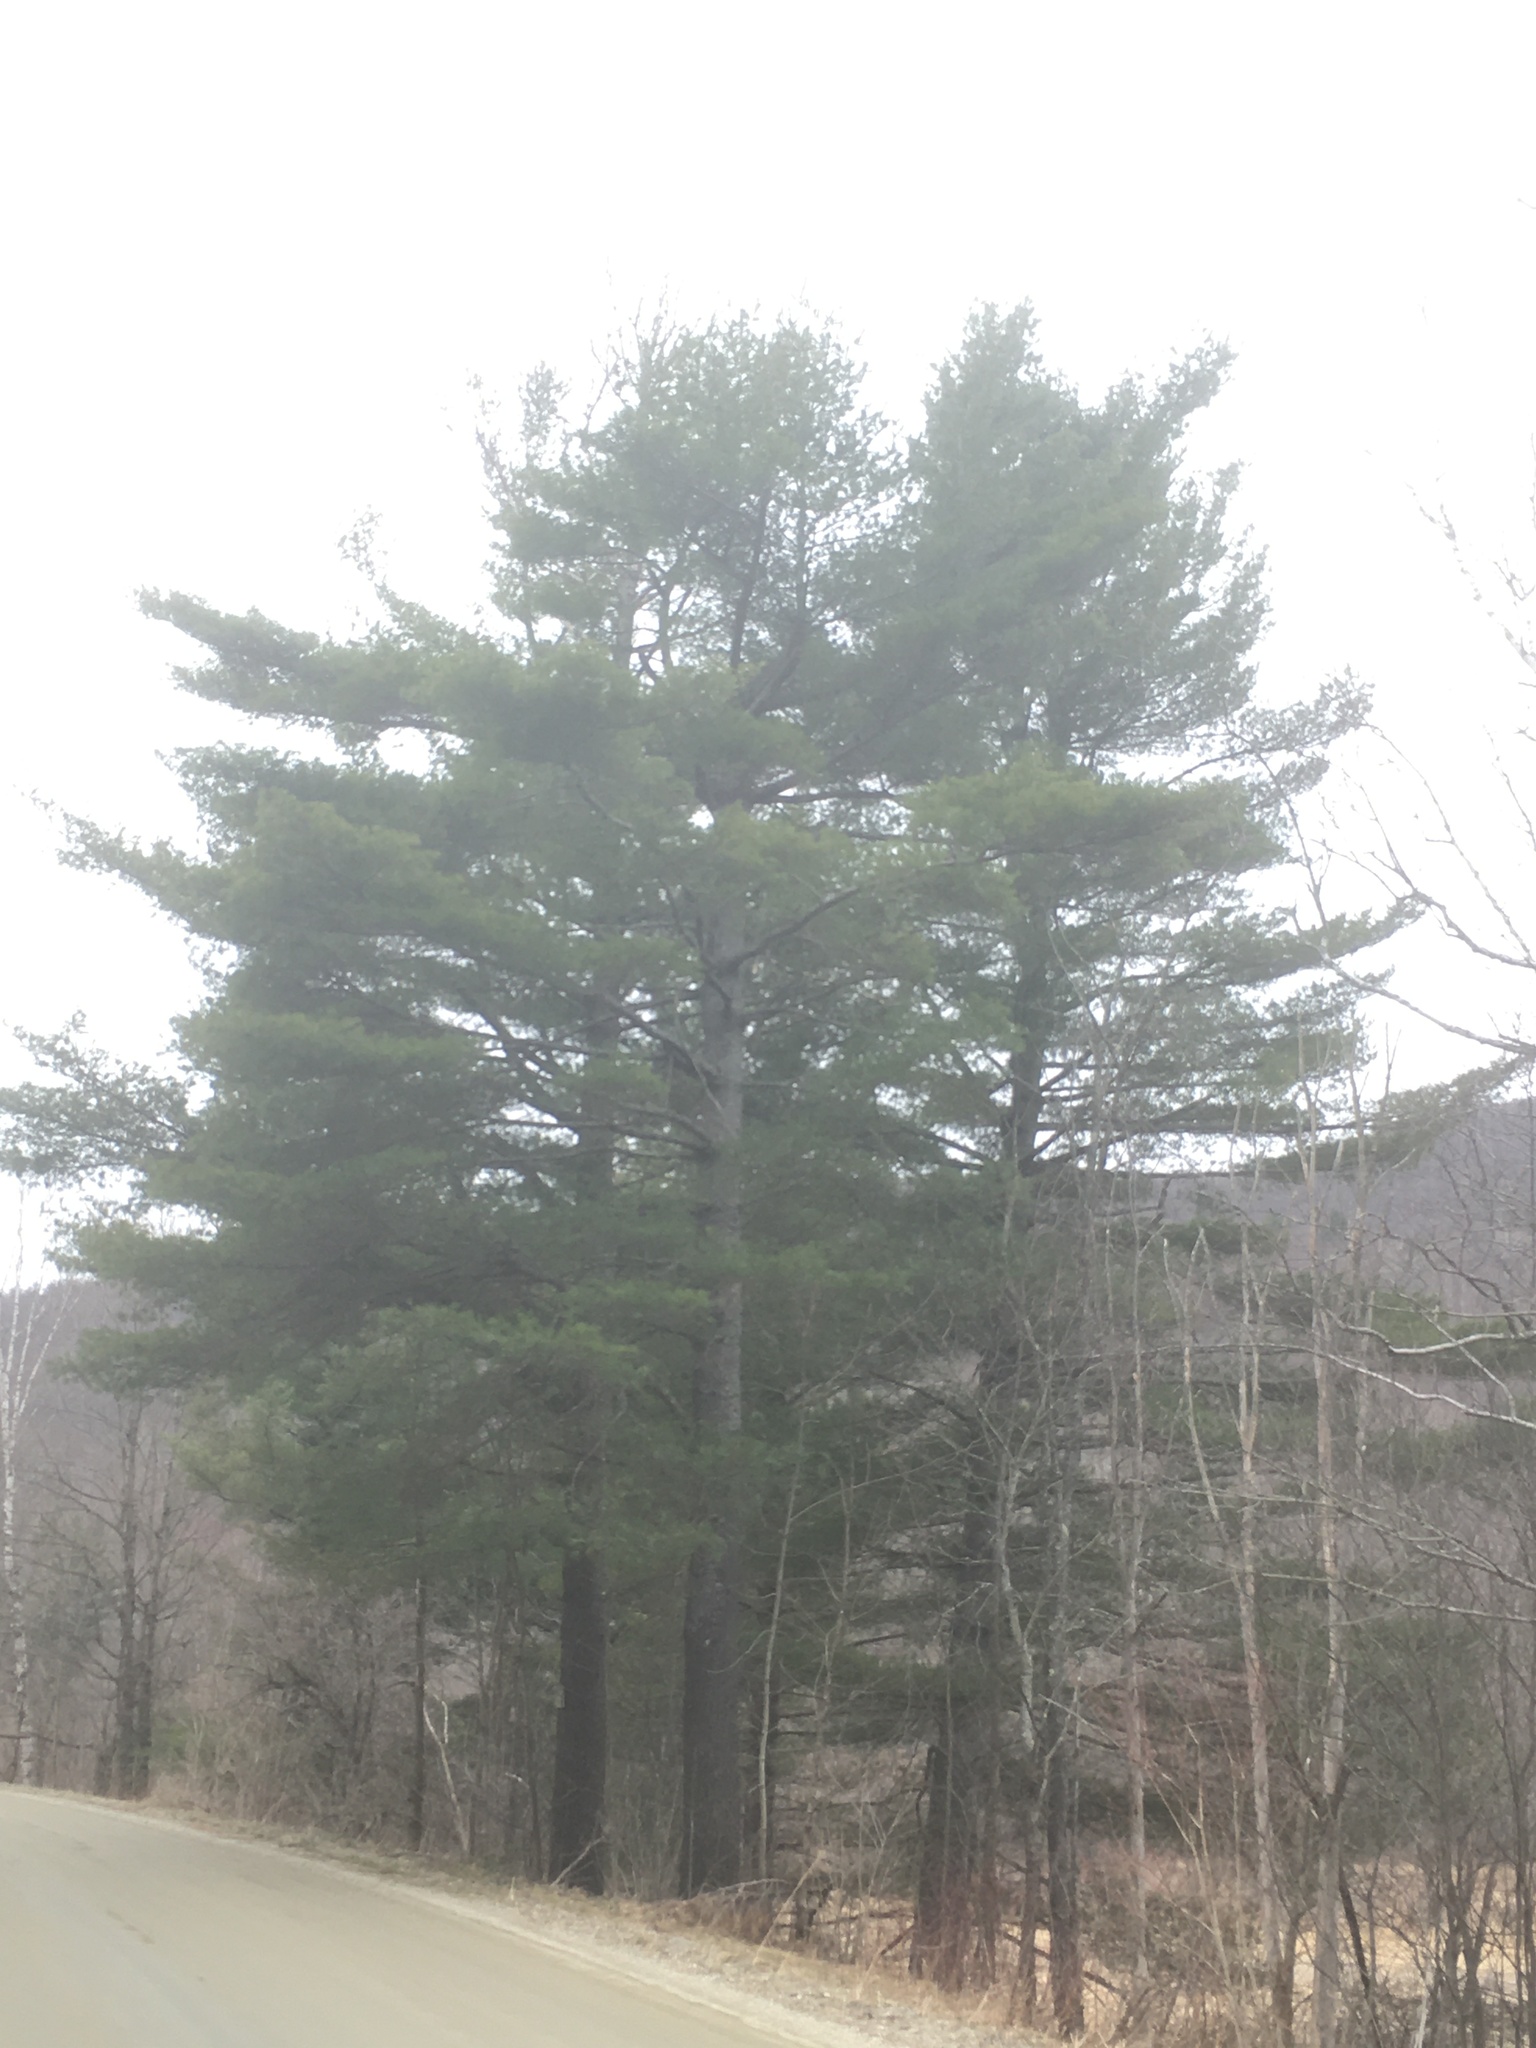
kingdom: Plantae
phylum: Tracheophyta
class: Pinopsida
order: Pinales
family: Pinaceae
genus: Pinus
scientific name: Pinus strobus
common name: Weymouth pine
